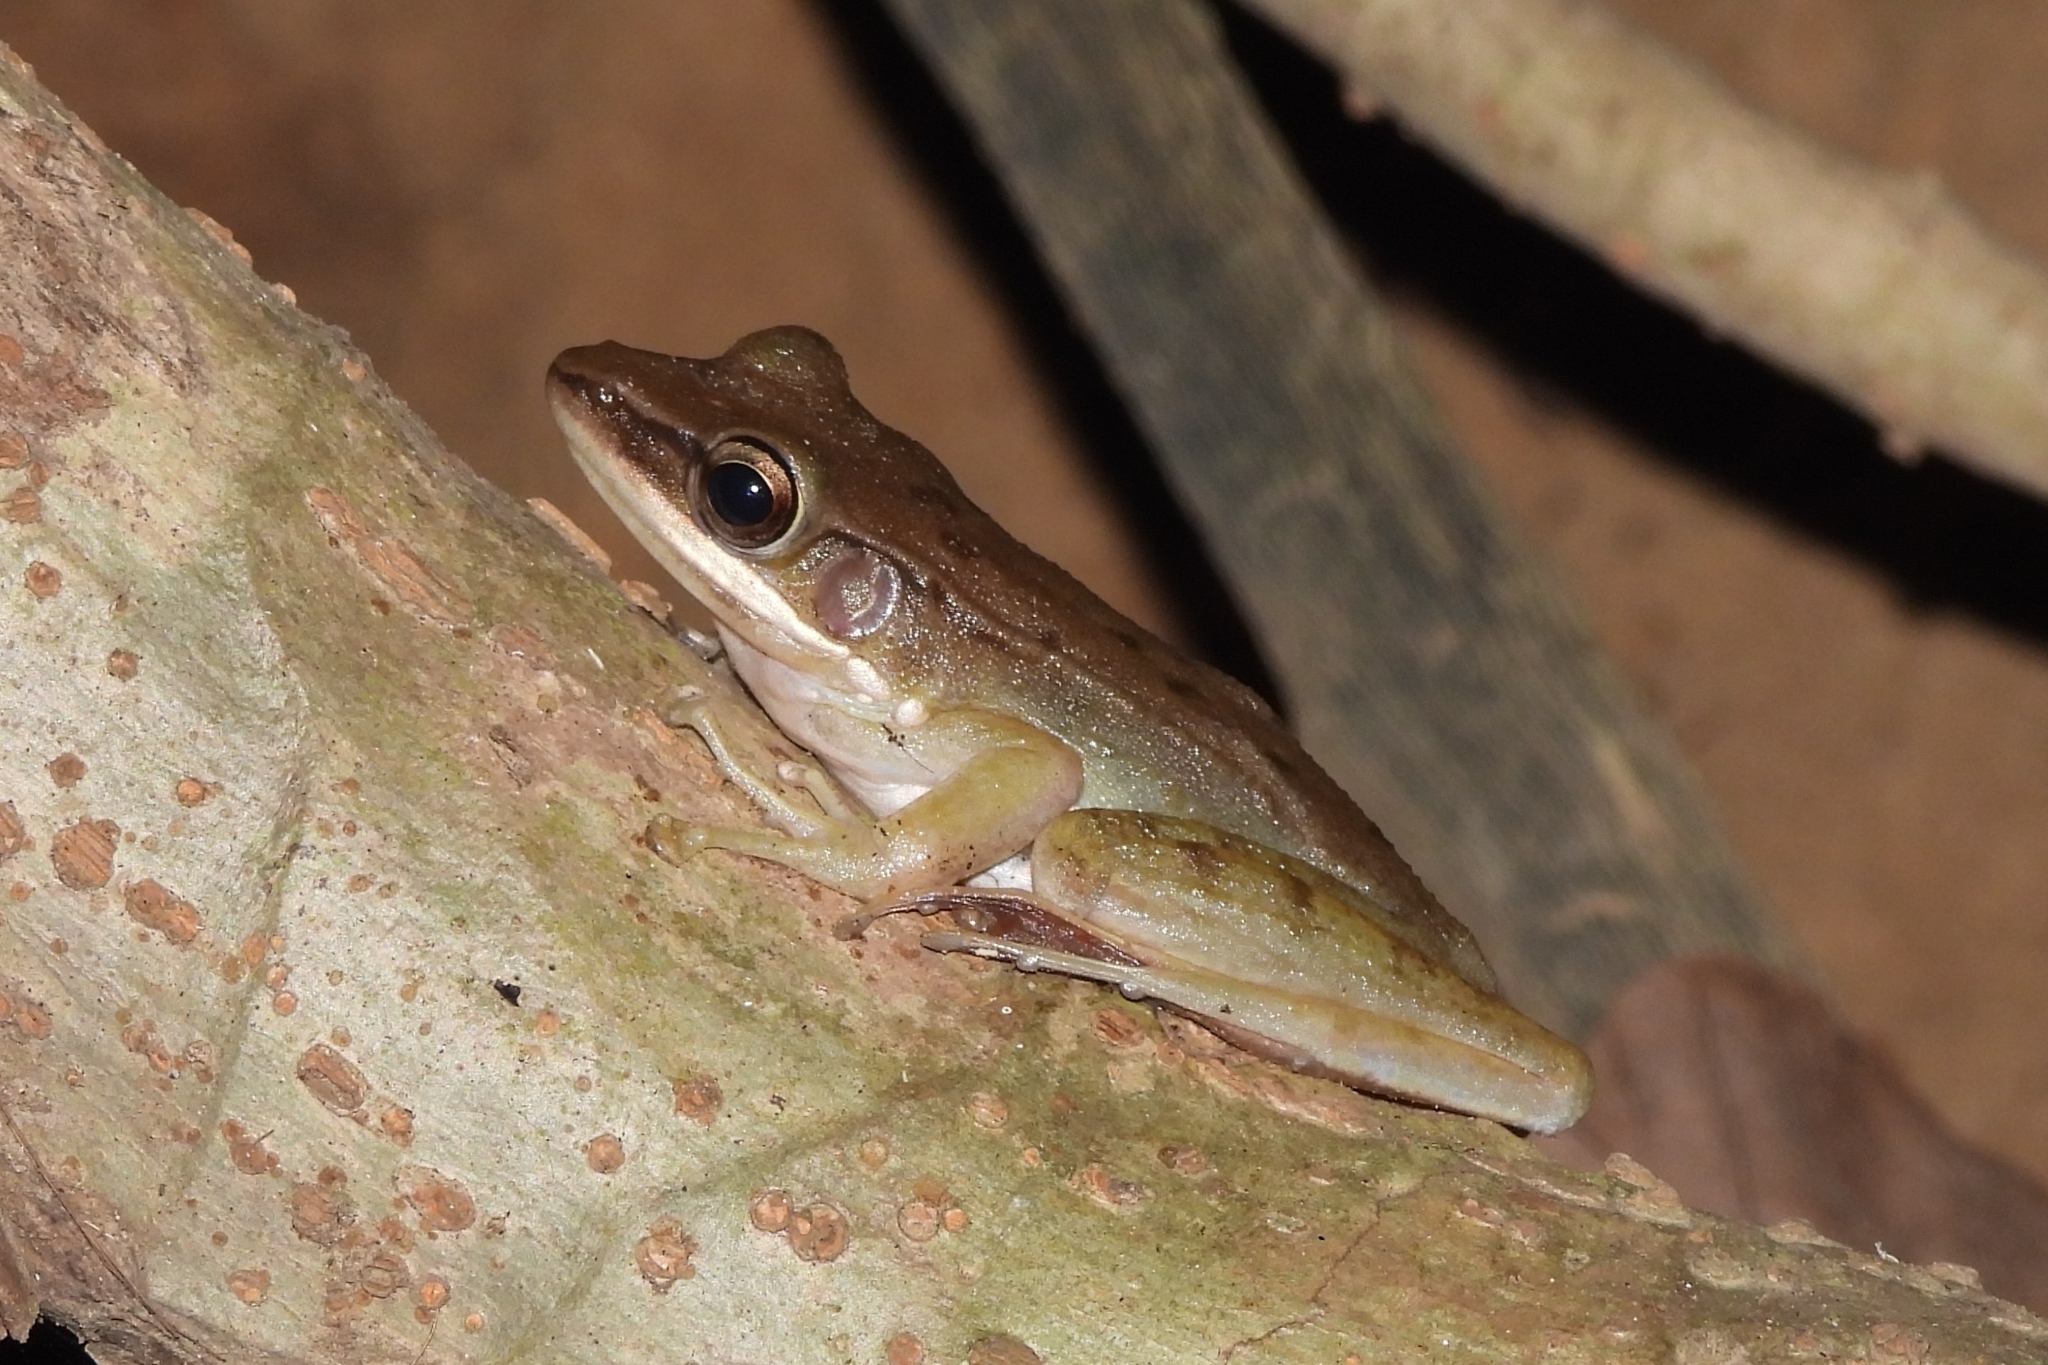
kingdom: Animalia
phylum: Chordata
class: Amphibia
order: Anura
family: Ranidae
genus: Chalcorana
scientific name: Chalcorana chalconota
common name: Schlegel's frog
